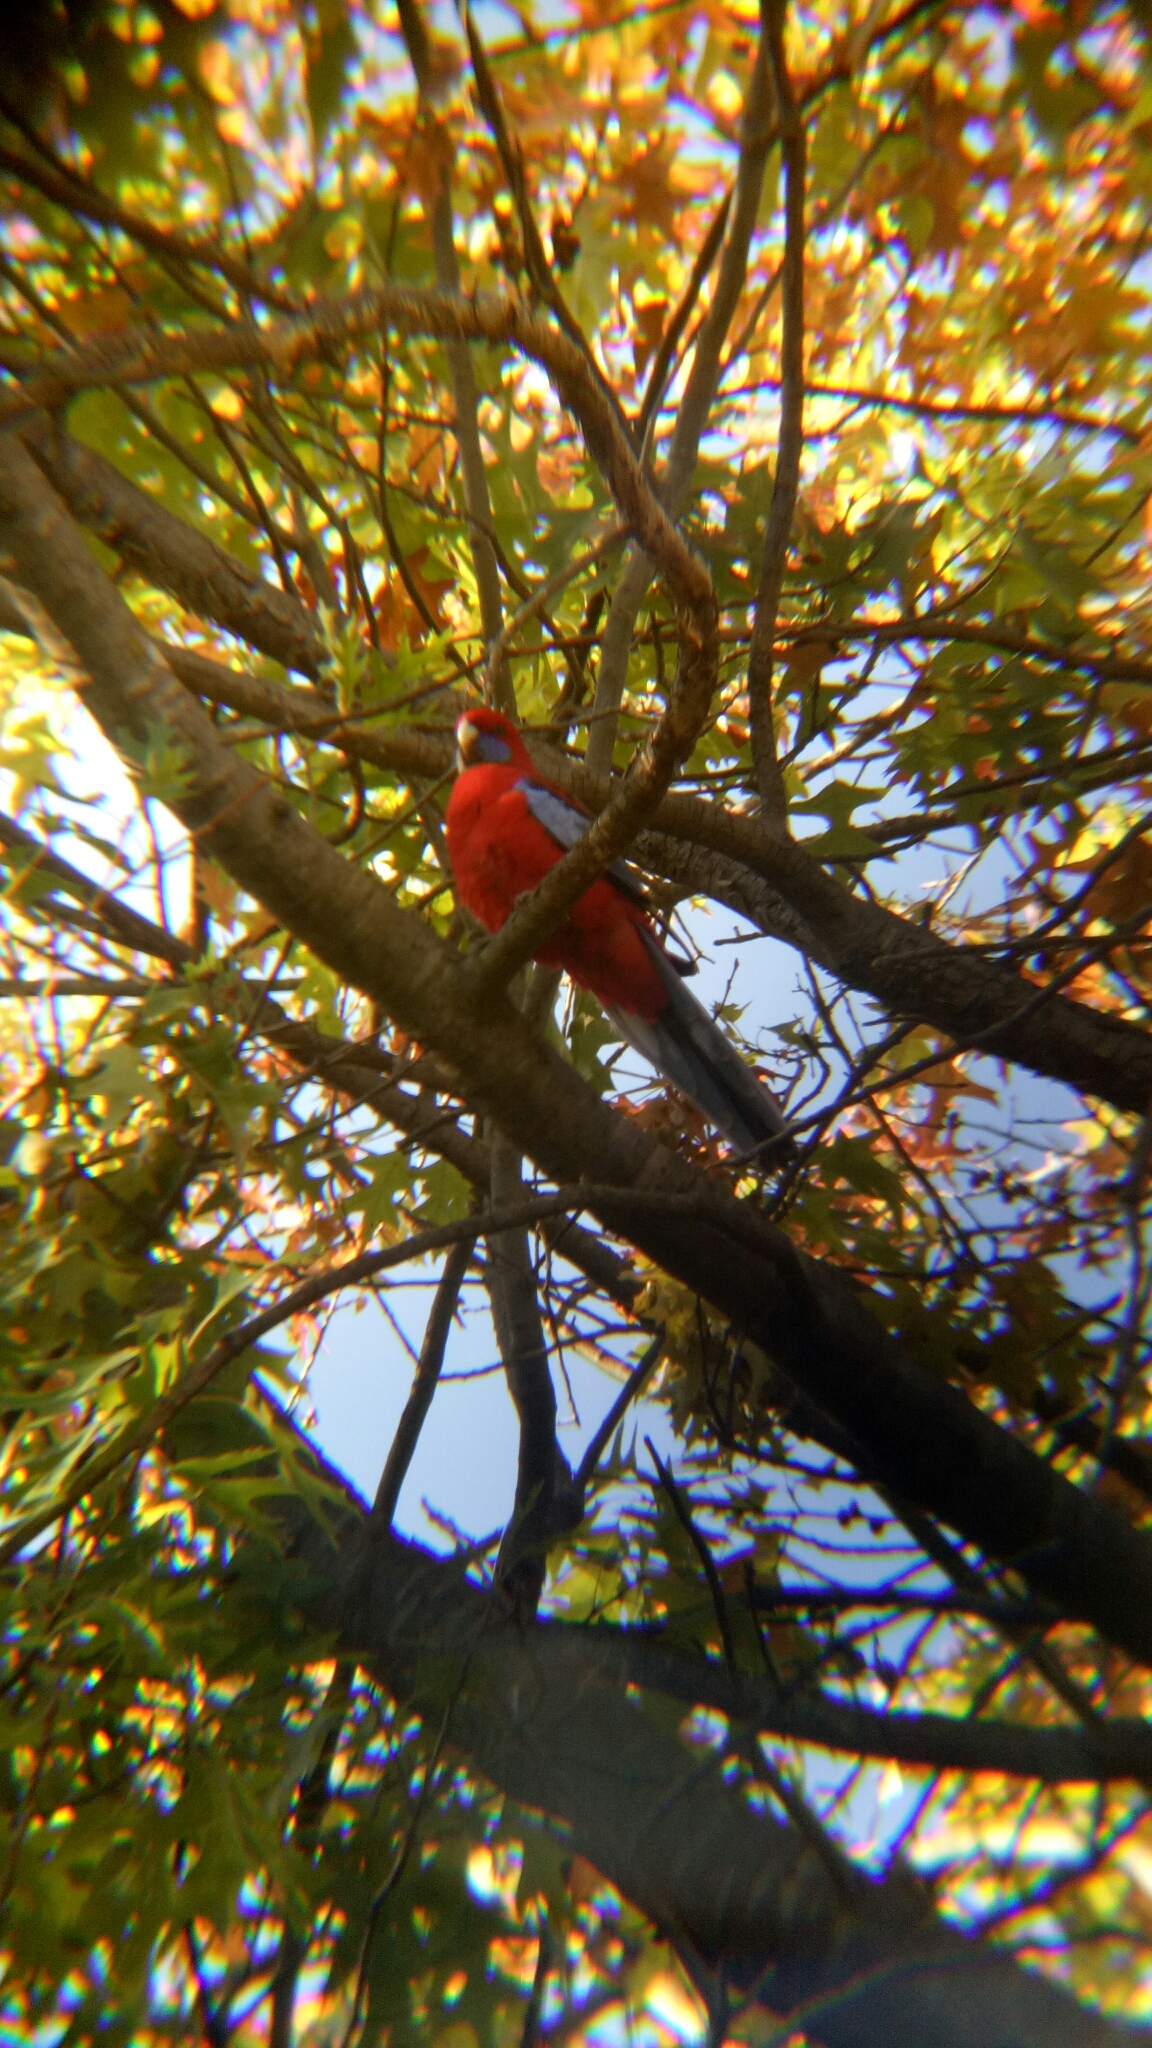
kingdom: Animalia
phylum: Chordata
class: Aves
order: Psittaciformes
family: Psittacidae
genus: Platycercus
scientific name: Platycercus elegans
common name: Crimson rosella
